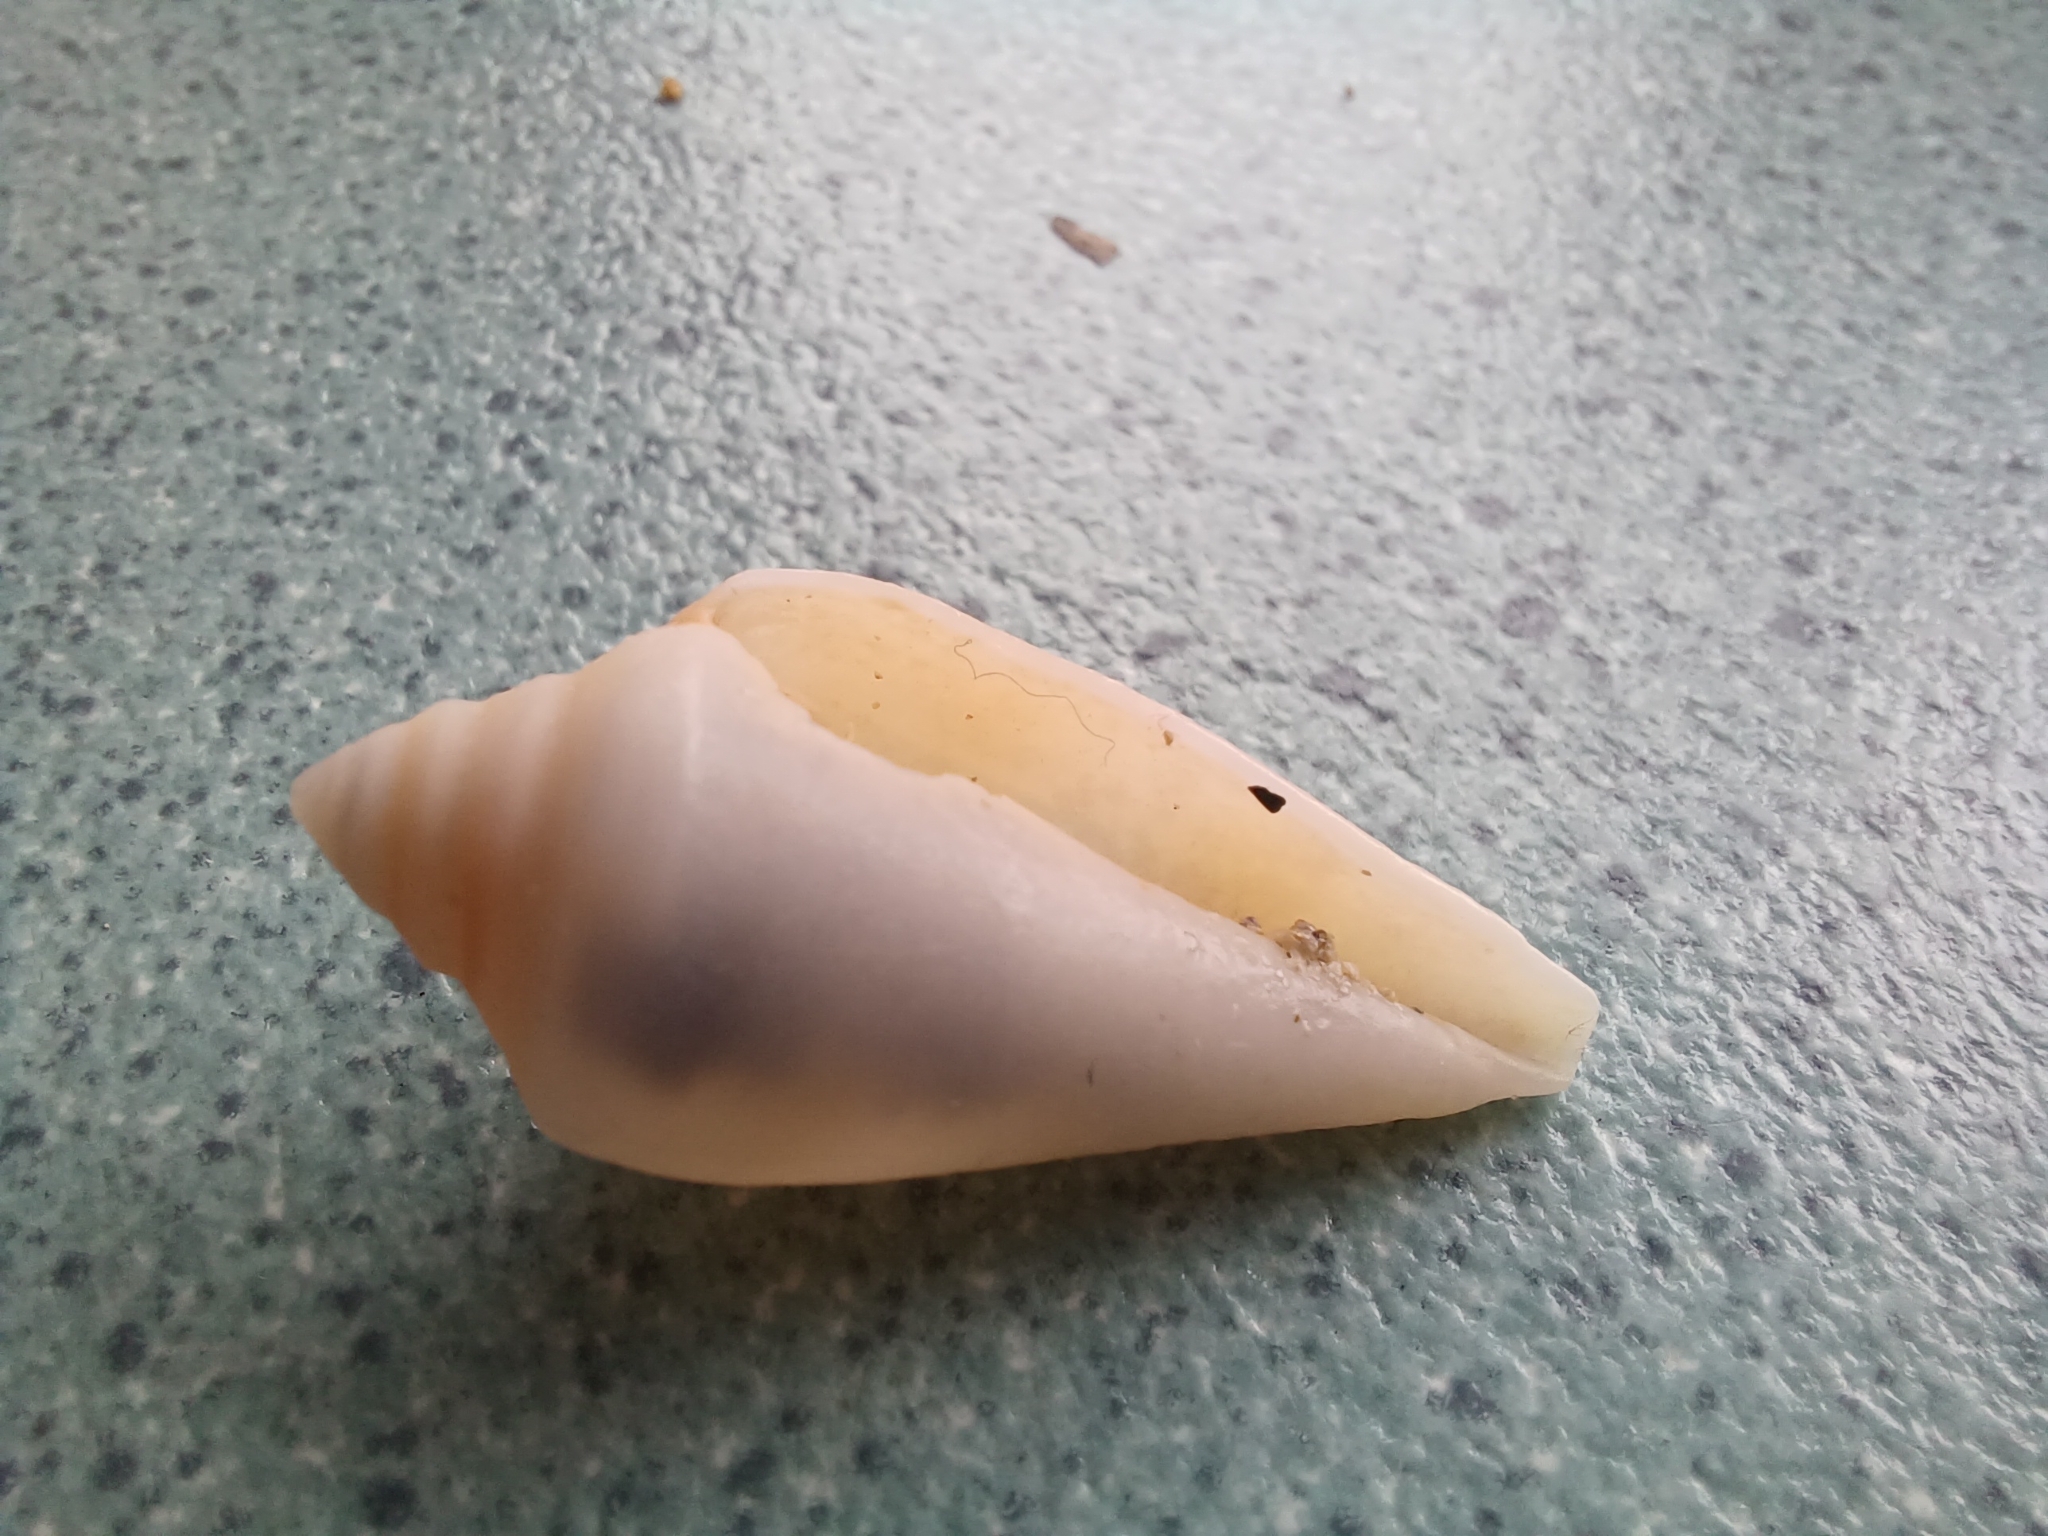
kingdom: Animalia
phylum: Mollusca
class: Gastropoda
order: Neogastropoda
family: Conidae
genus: Conus
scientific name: Conus anemone
